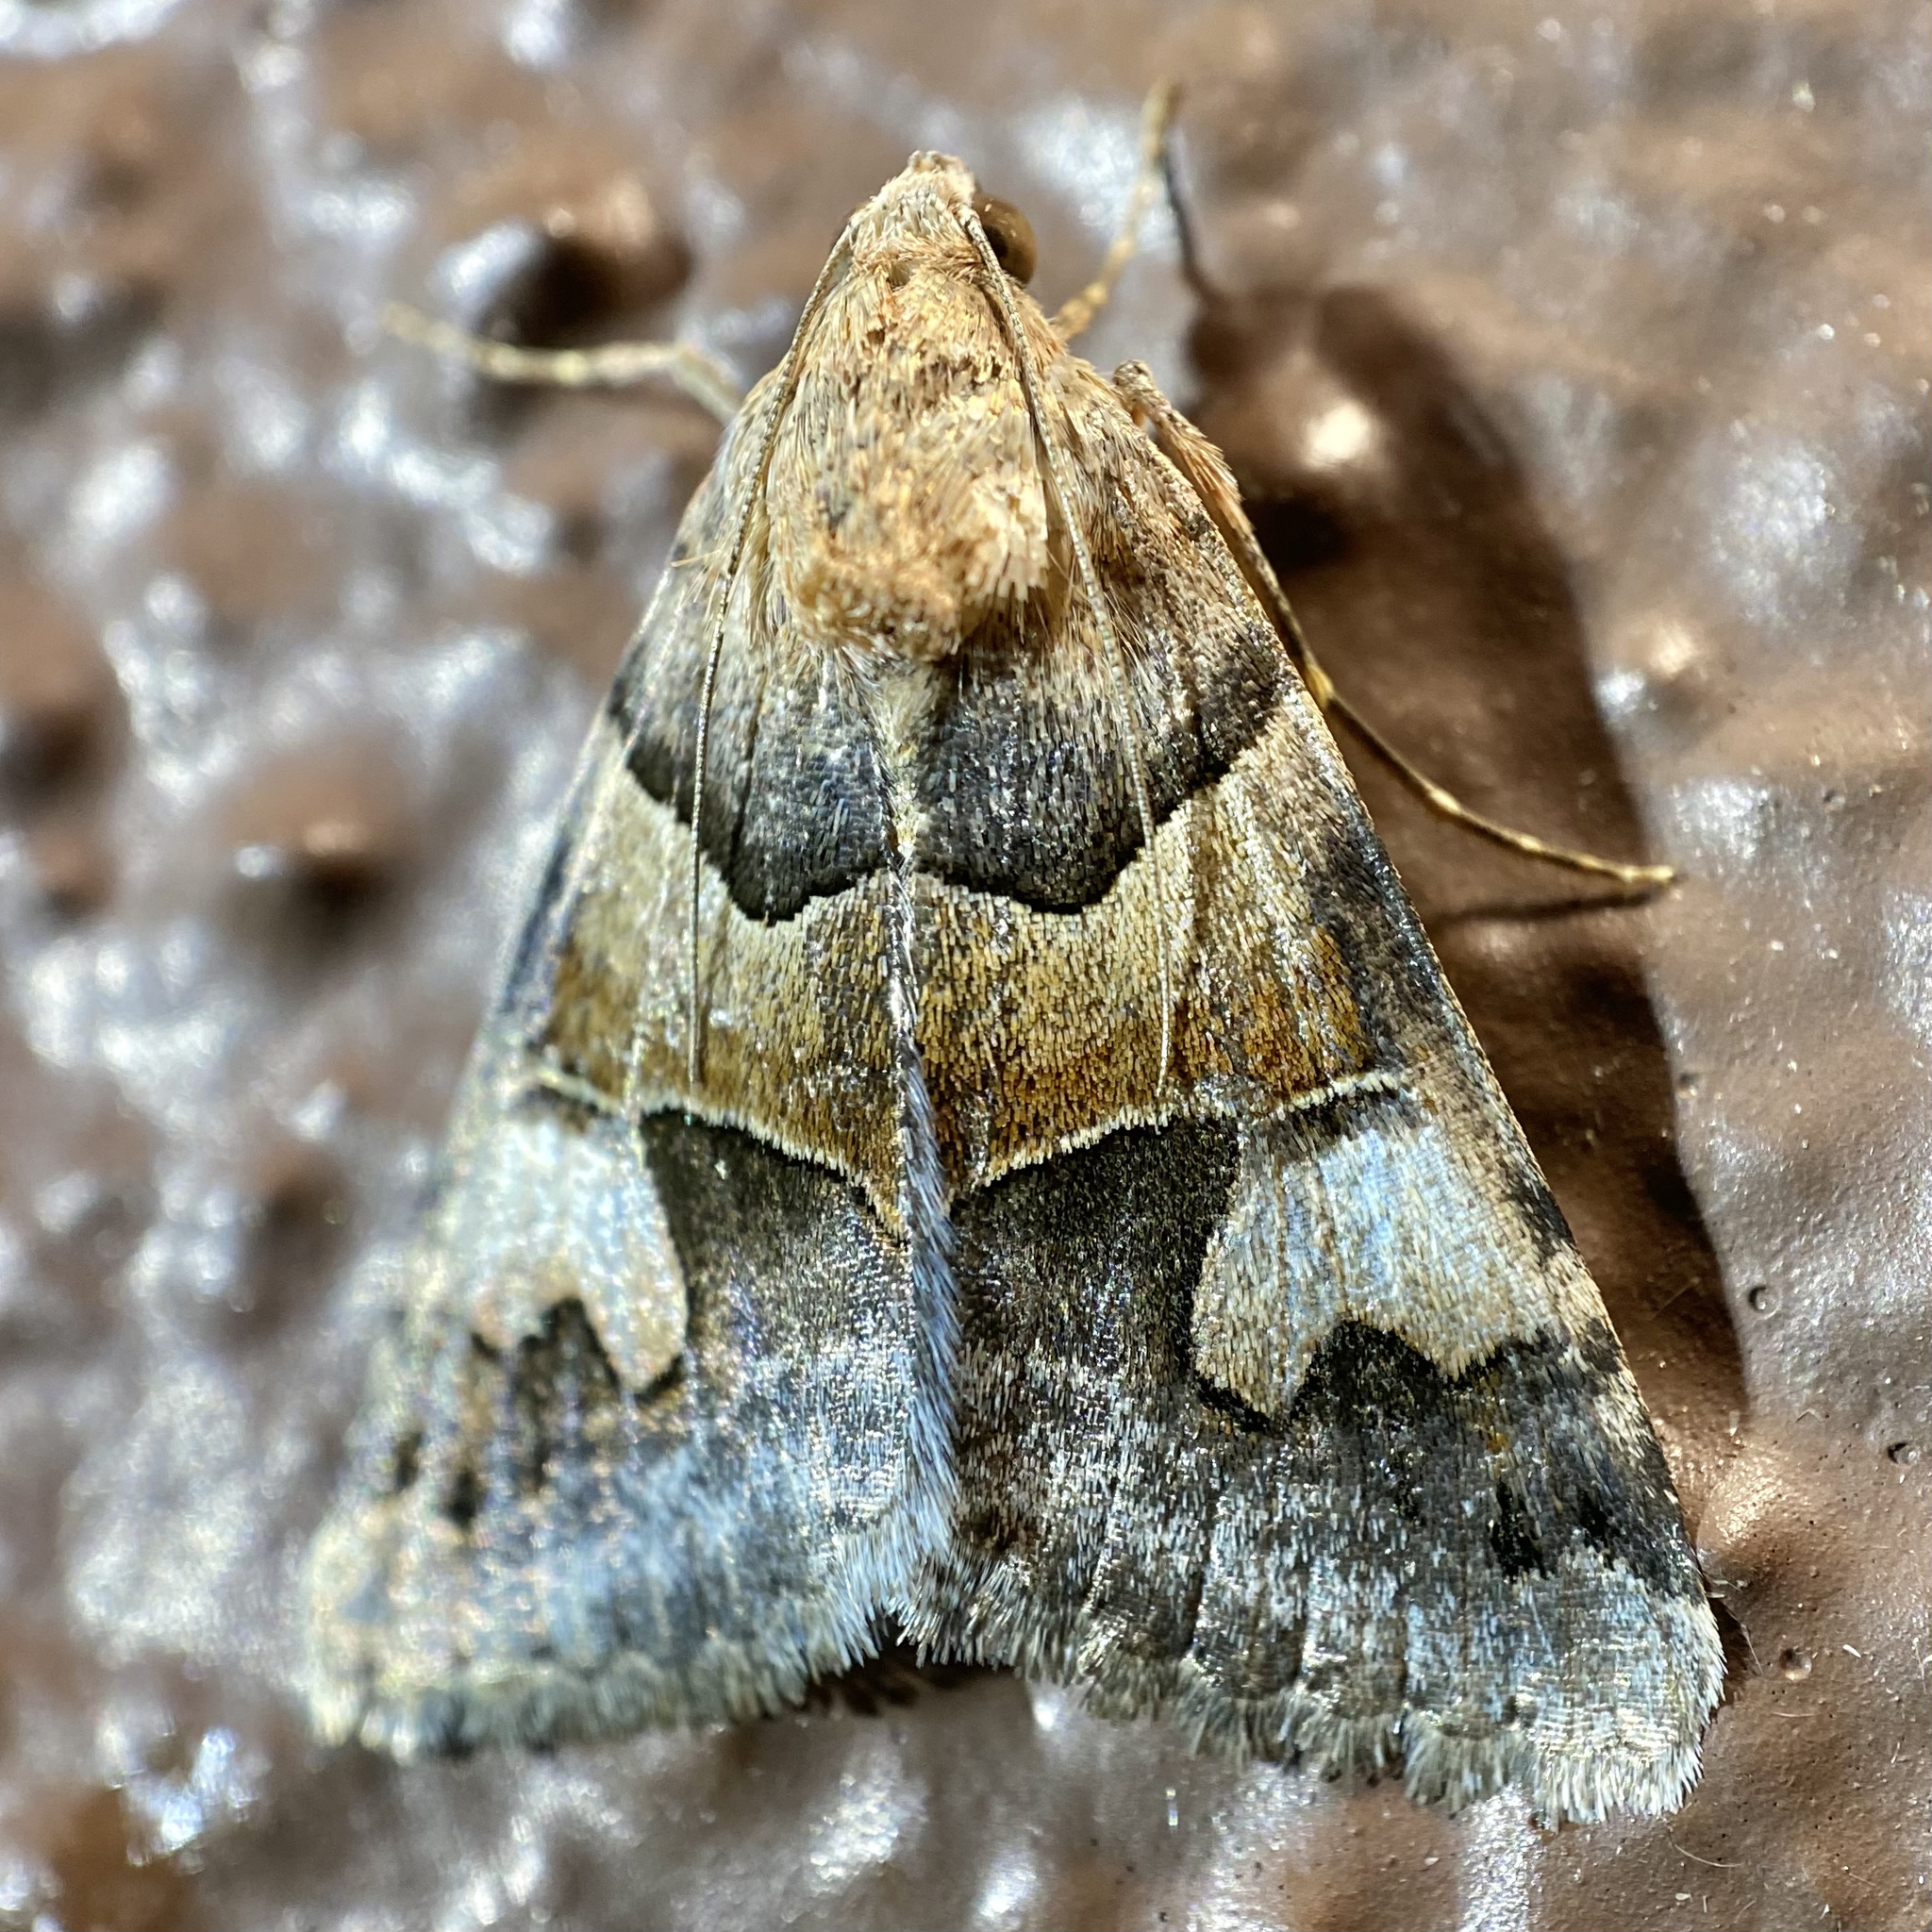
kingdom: Animalia
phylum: Arthropoda
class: Insecta
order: Lepidoptera
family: Erebidae
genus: Drasteria
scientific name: Drasteria pallescens
